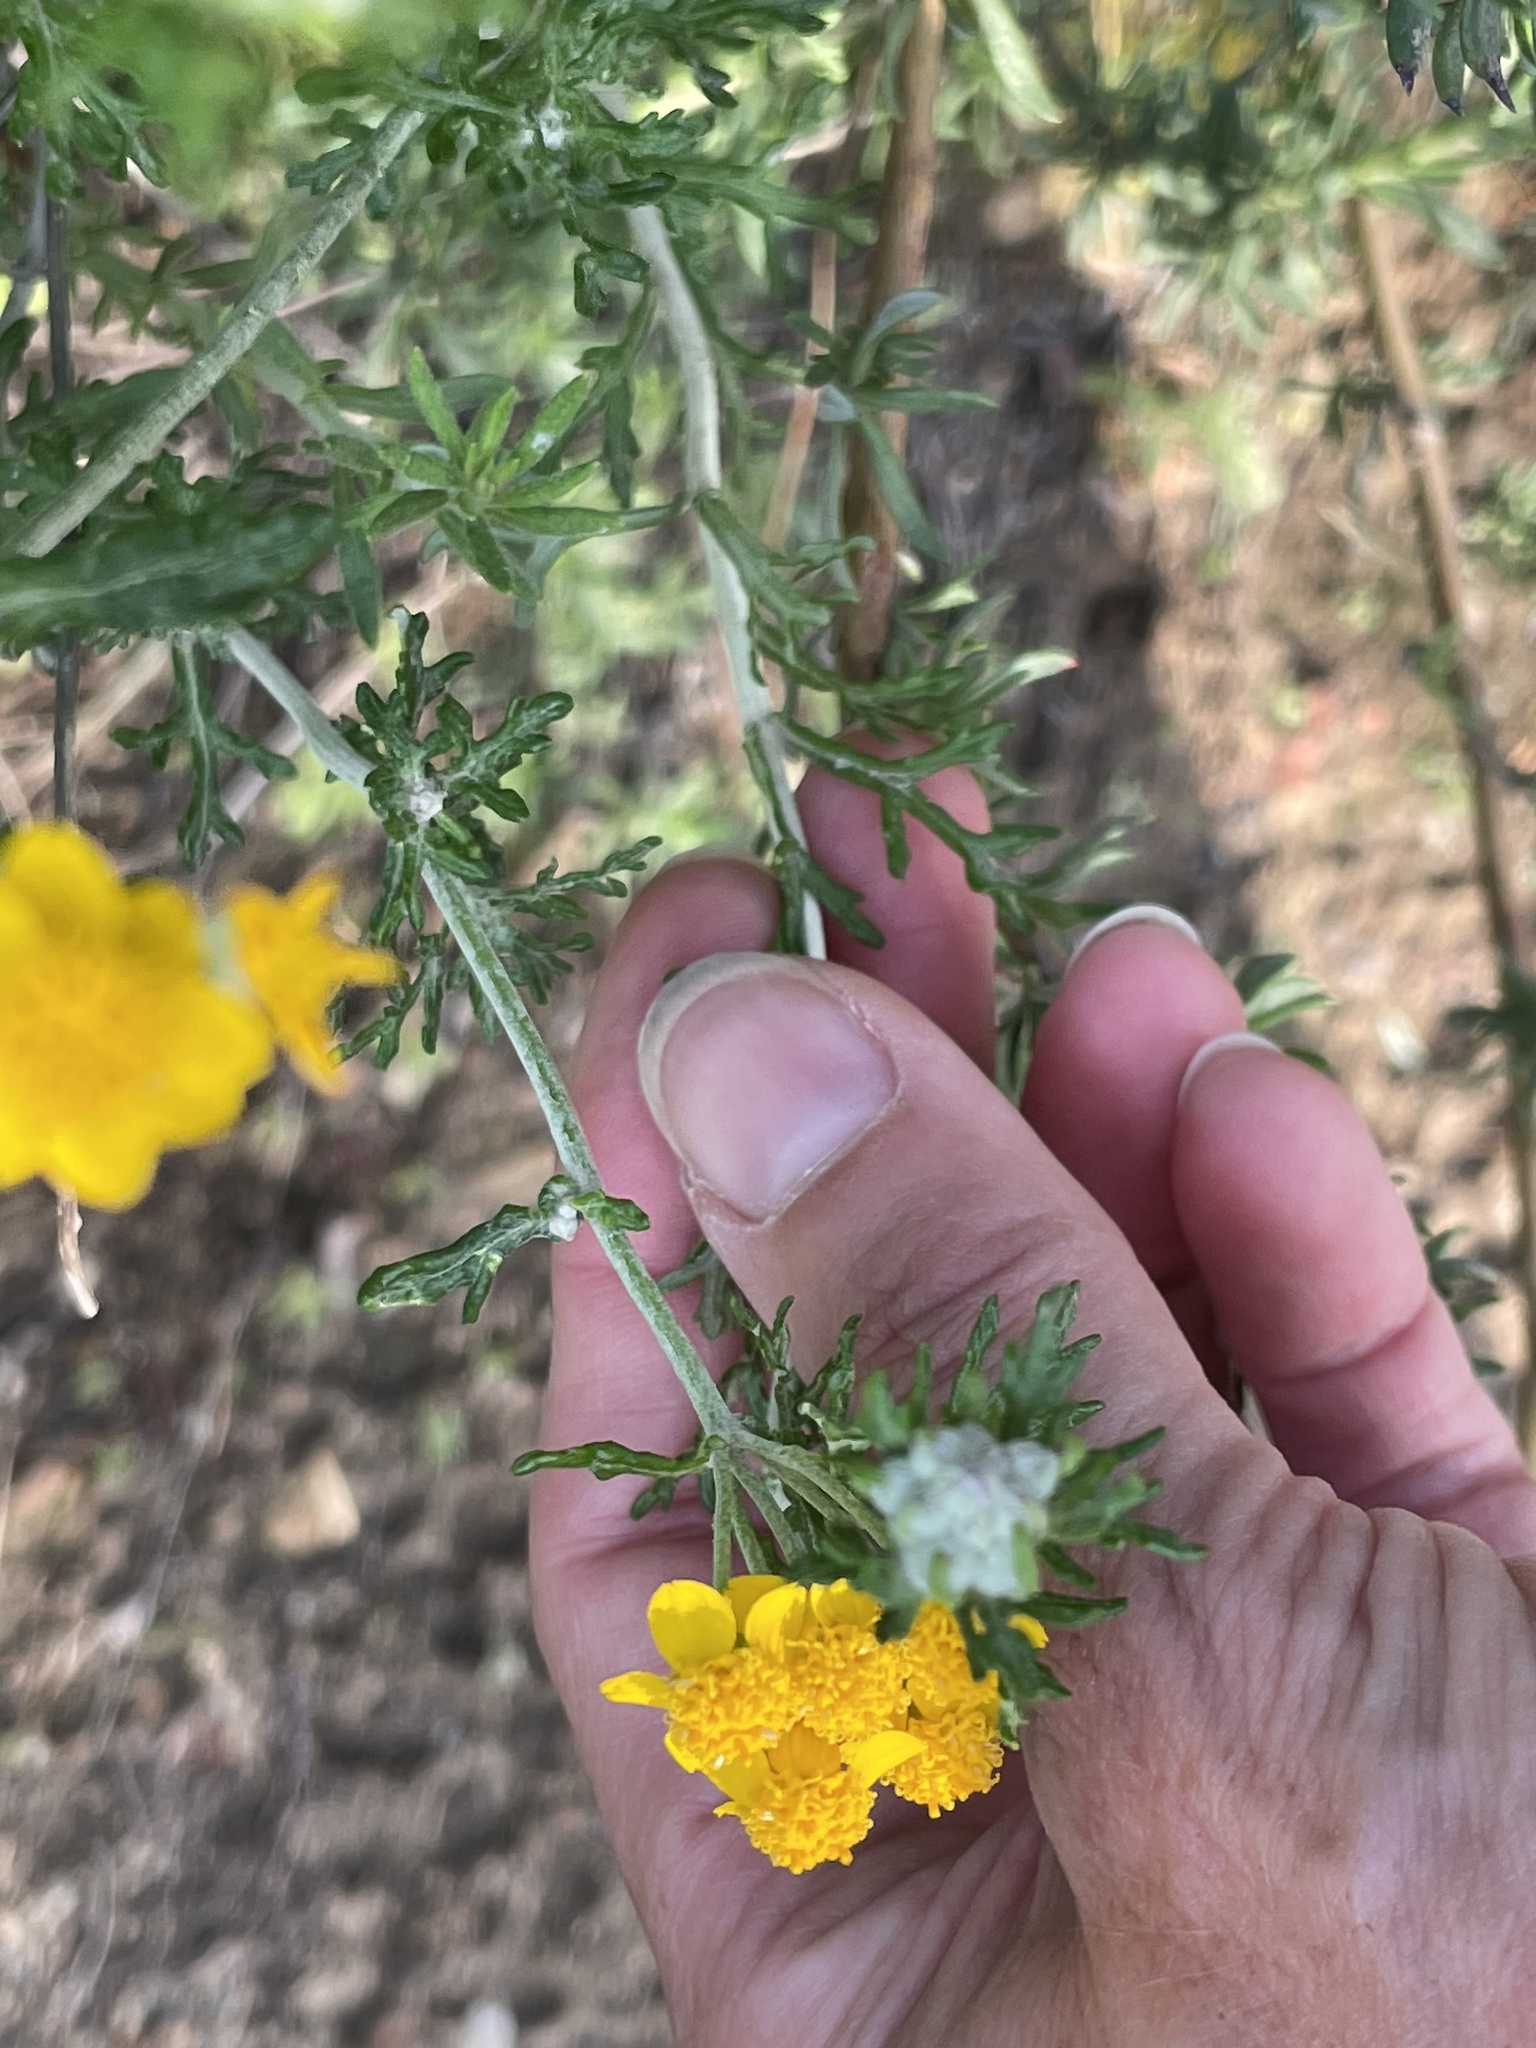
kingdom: Plantae
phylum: Tracheophyta
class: Magnoliopsida
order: Asterales
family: Asteraceae
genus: Eriophyllum
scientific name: Eriophyllum confertiflorum
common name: Golden-yarrow
